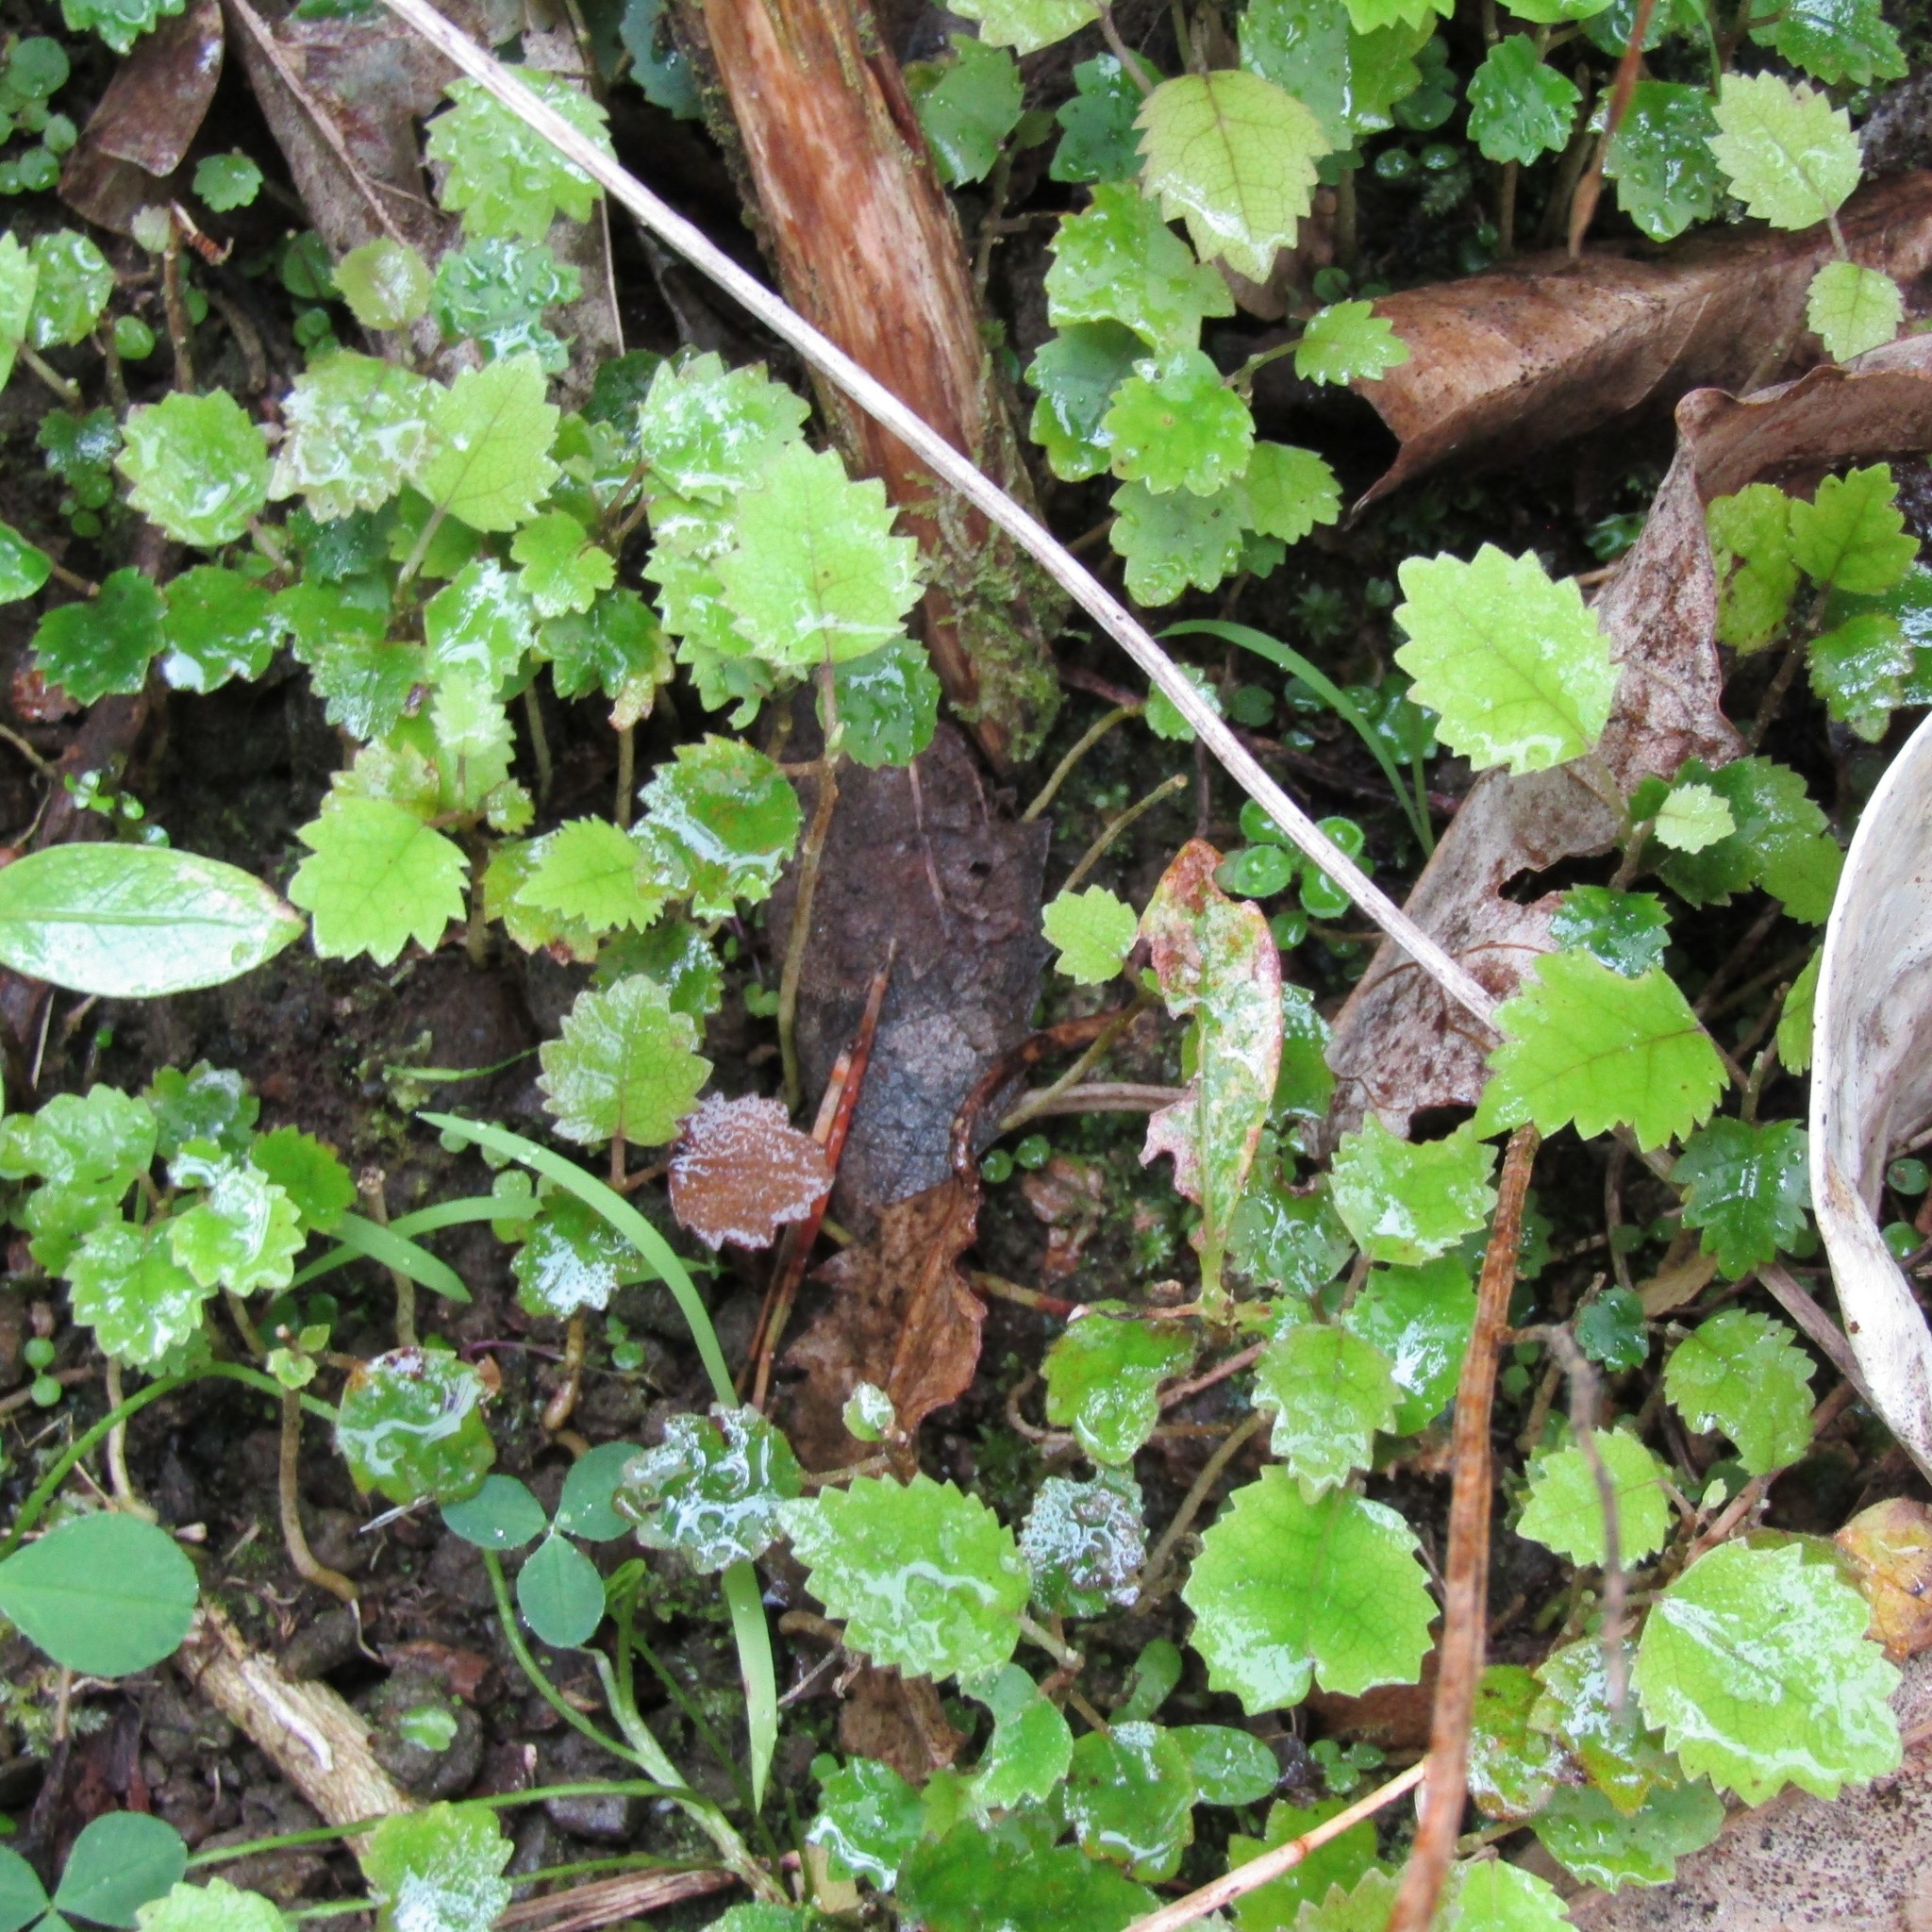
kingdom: Plantae
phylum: Tracheophyta
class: Magnoliopsida
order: Malvales
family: Malvaceae
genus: Hoheria
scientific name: Hoheria populnea
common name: Lacebark
